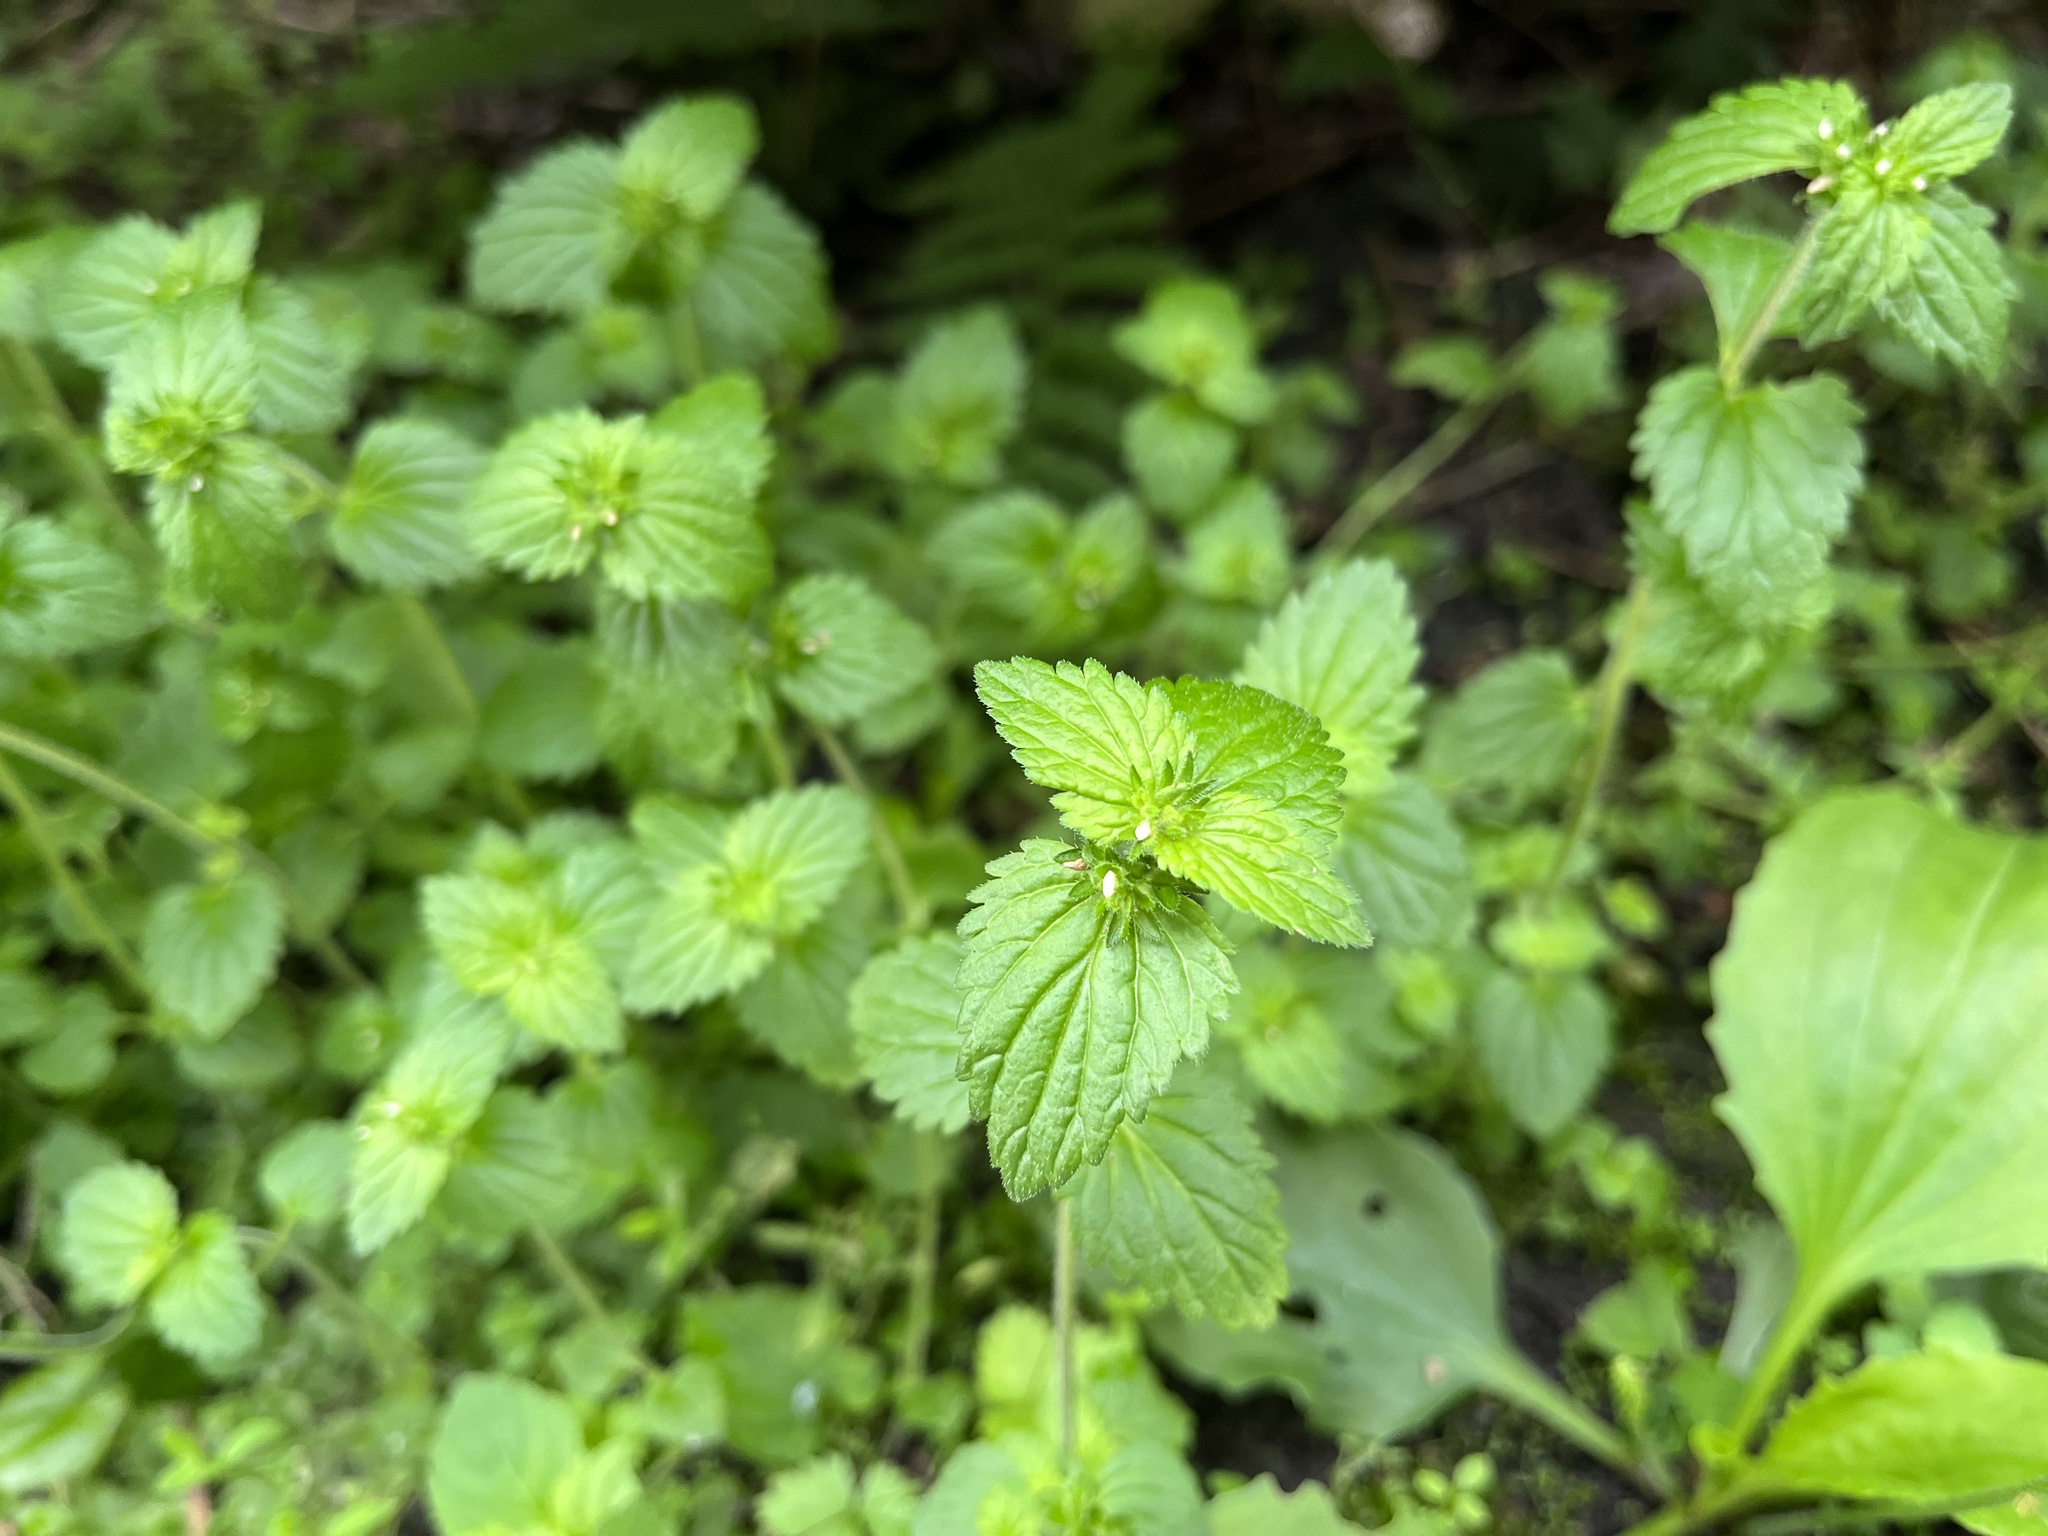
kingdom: Plantae
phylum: Tracheophyta
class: Magnoliopsida
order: Lamiales
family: Plantaginaceae
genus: Veronica
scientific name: Veronica javanica
